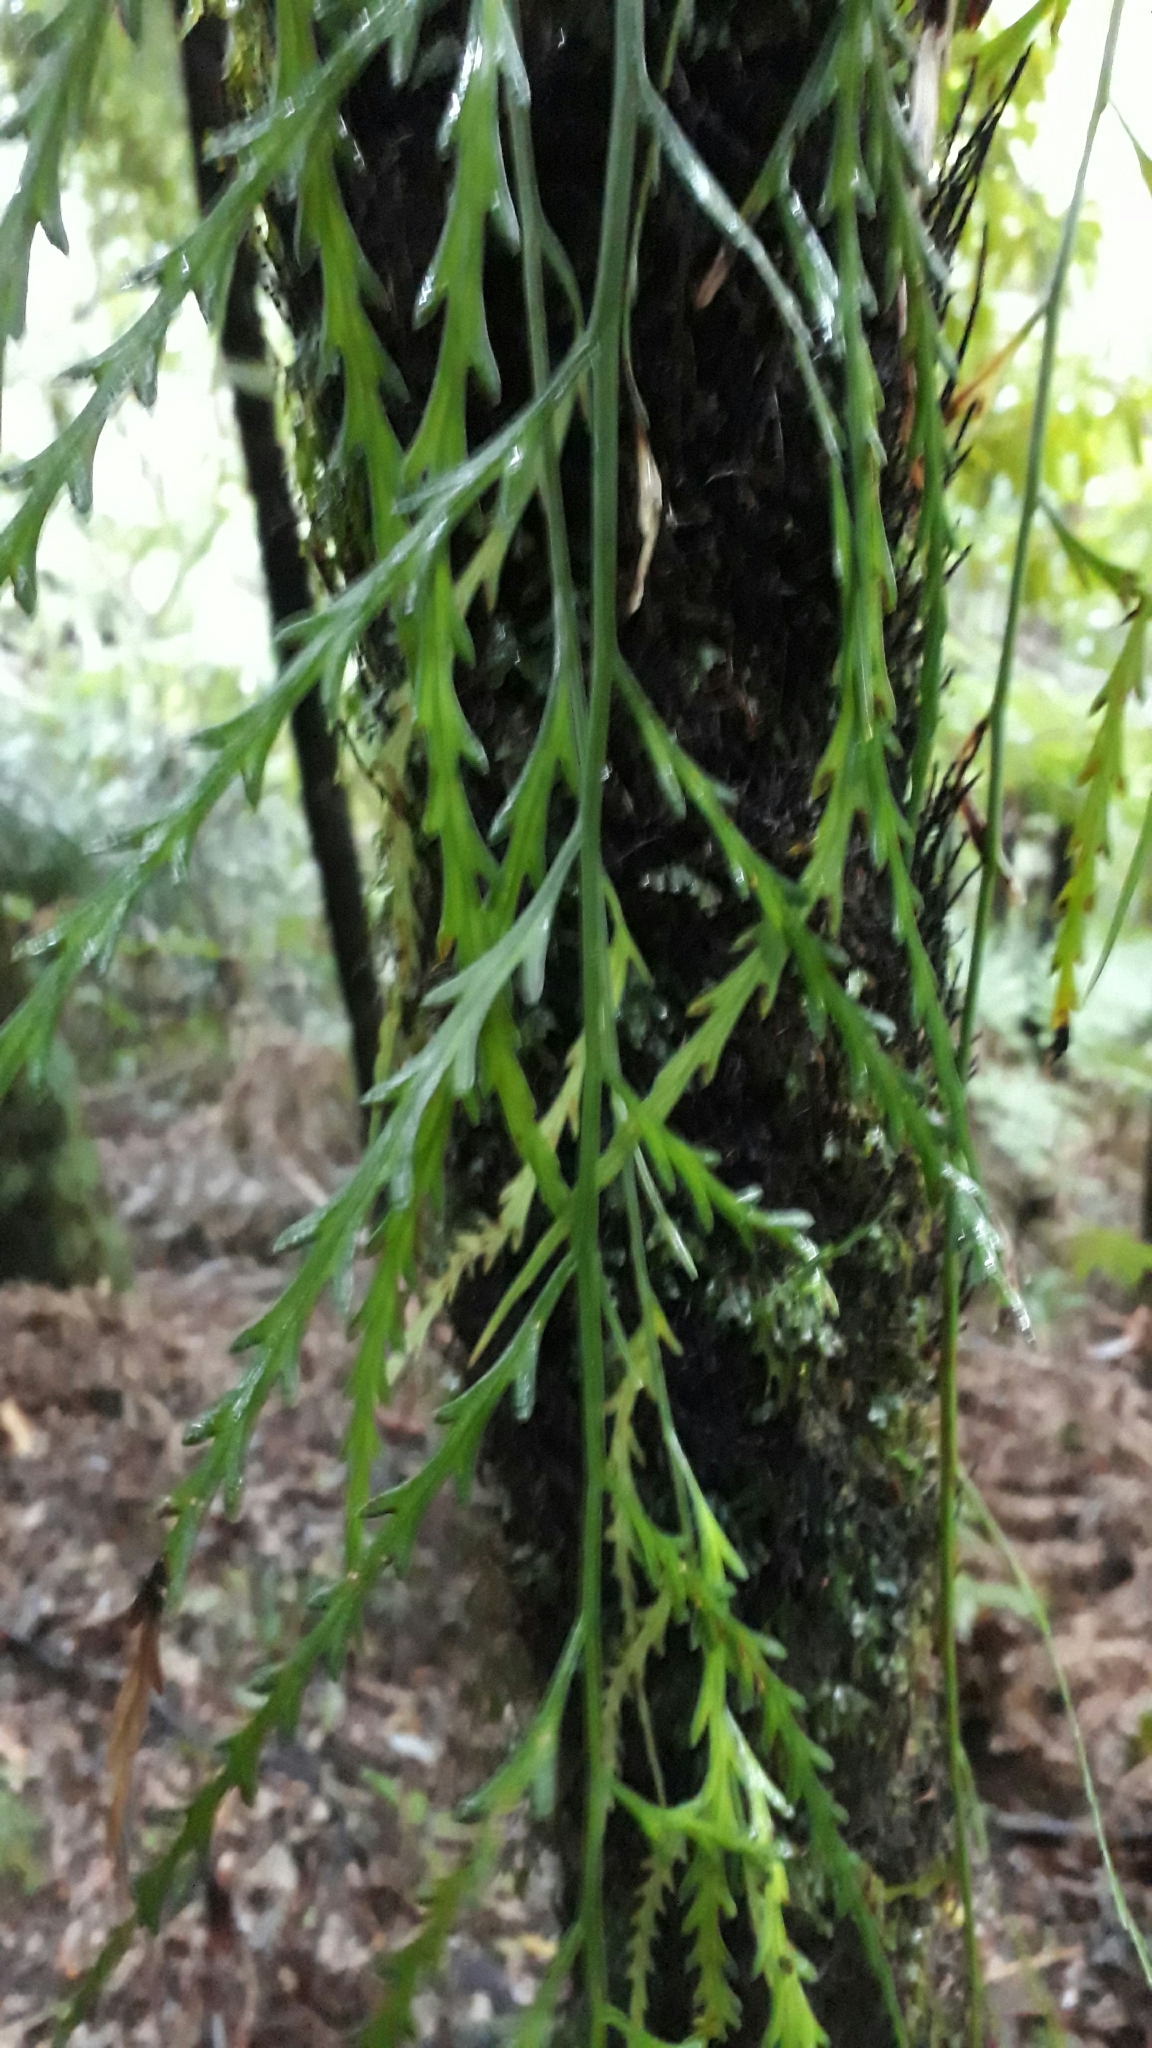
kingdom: Plantae
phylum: Tracheophyta
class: Polypodiopsida
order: Polypodiales
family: Aspleniaceae
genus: Asplenium
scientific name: Asplenium flaccidum
